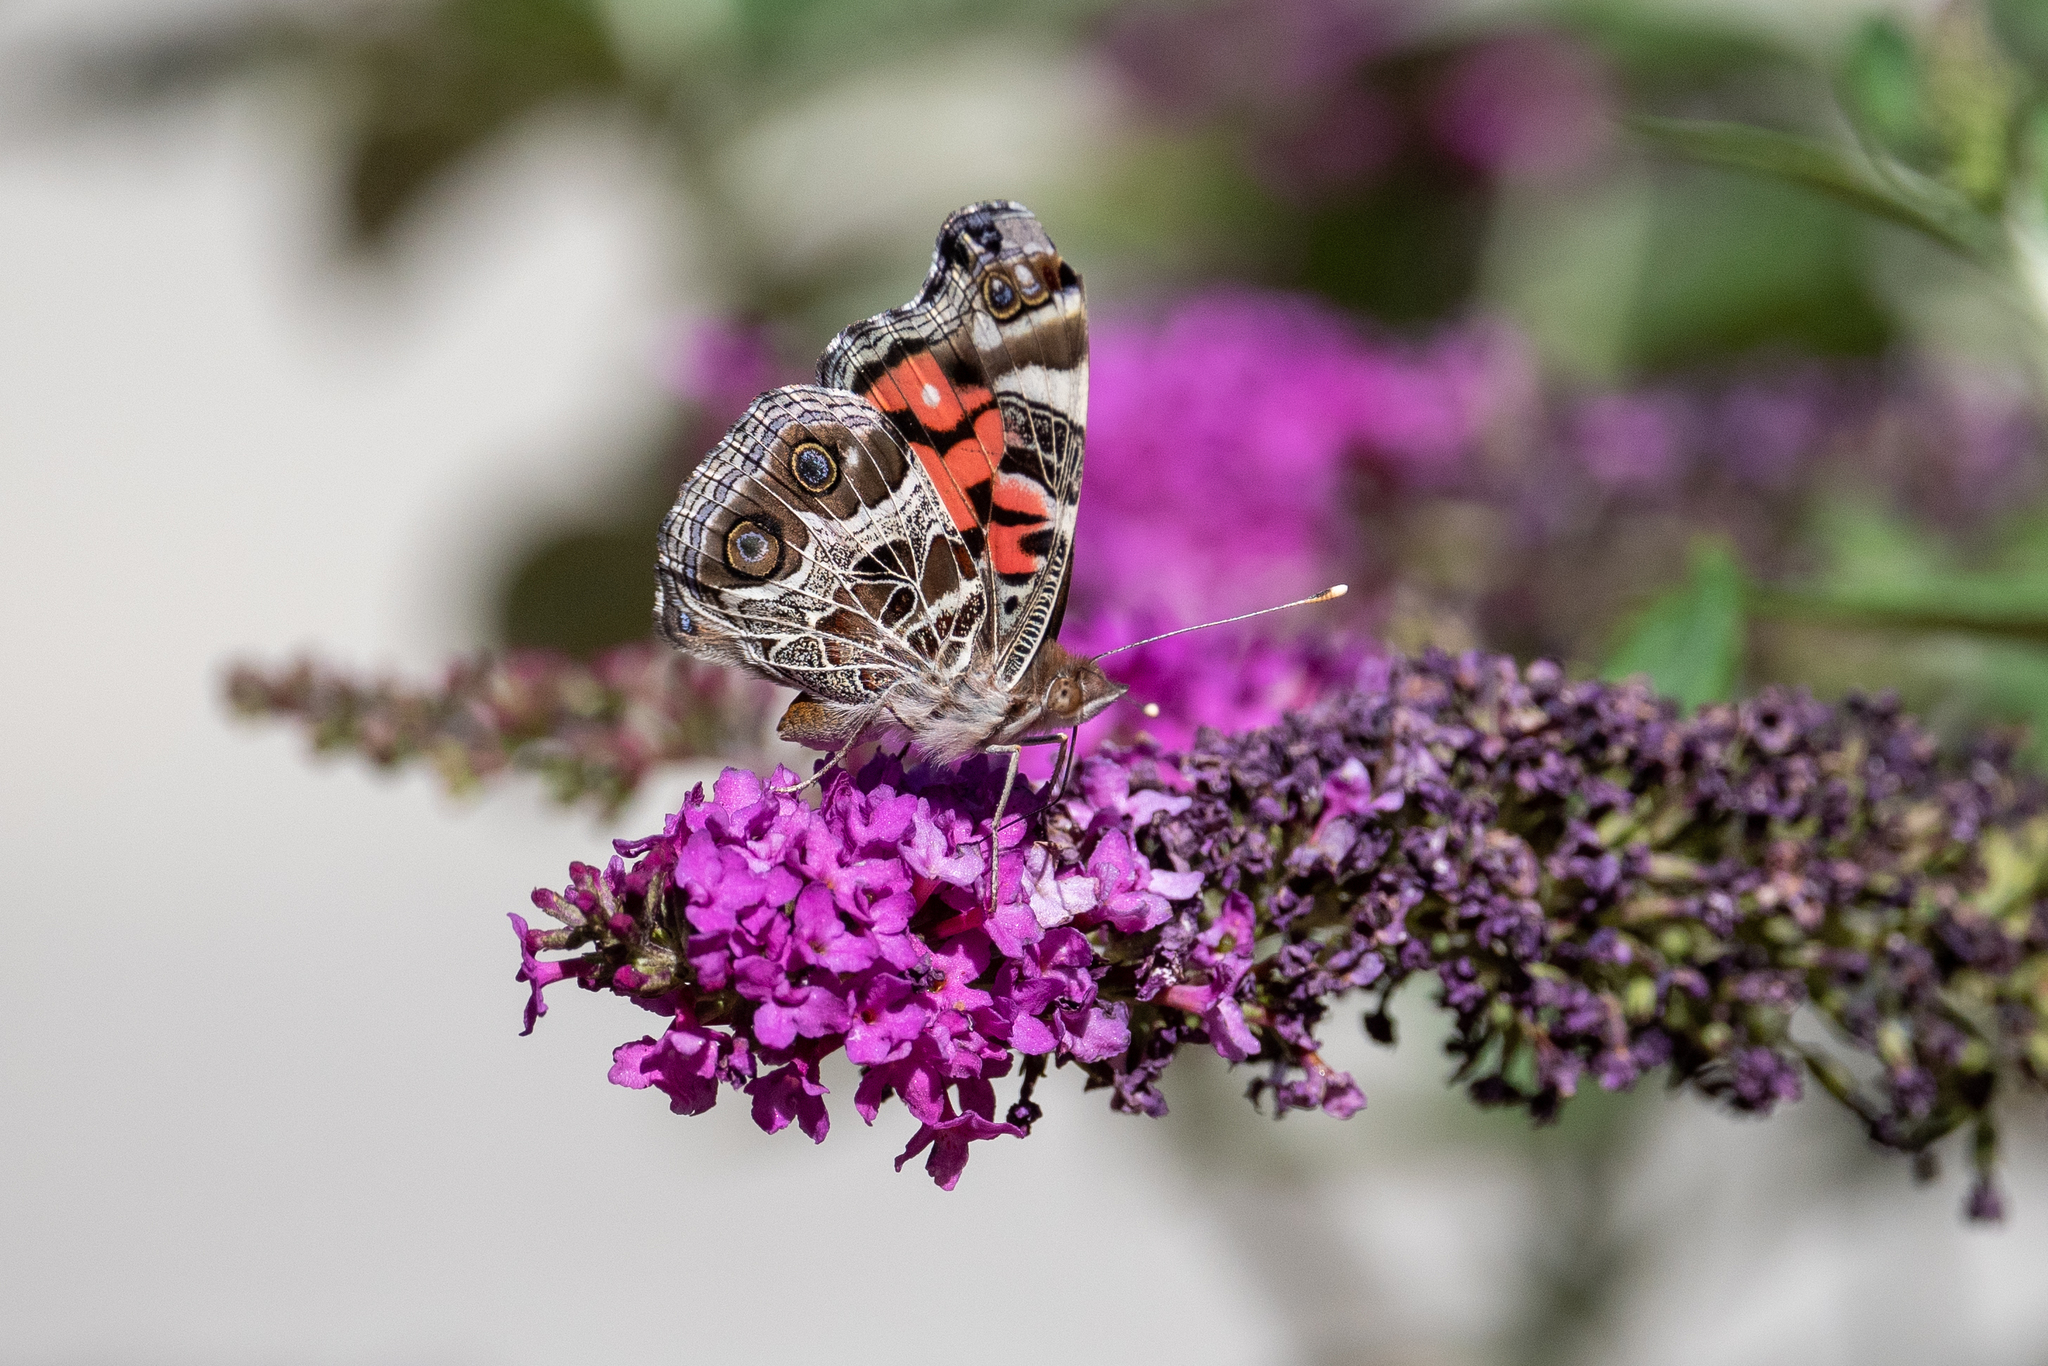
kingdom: Animalia
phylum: Arthropoda
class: Insecta
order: Lepidoptera
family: Nymphalidae
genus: Vanessa
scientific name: Vanessa virginiensis
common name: American lady
